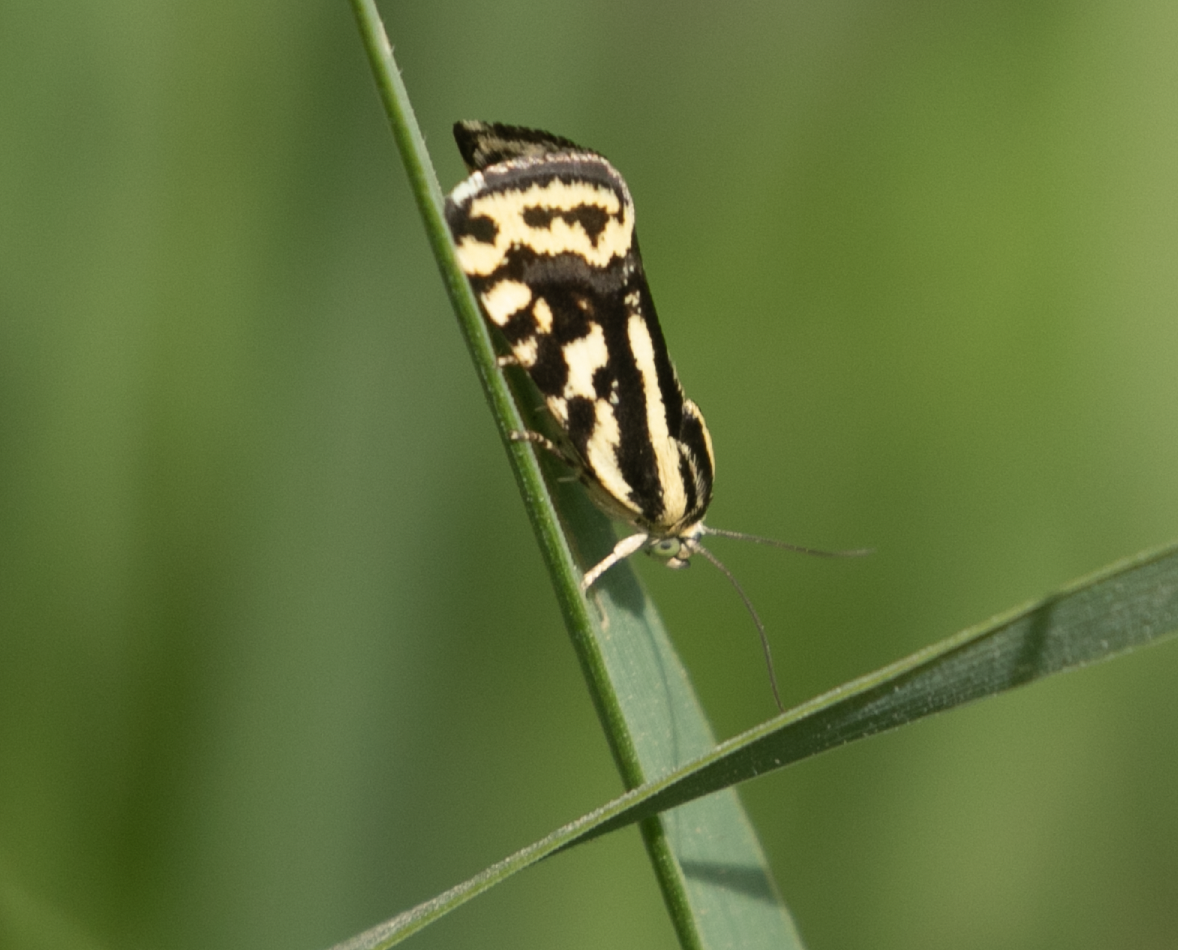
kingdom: Animalia
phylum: Arthropoda
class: Insecta
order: Lepidoptera
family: Noctuidae
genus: Acontia
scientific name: Acontia trabealis
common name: Spotted sulphur
